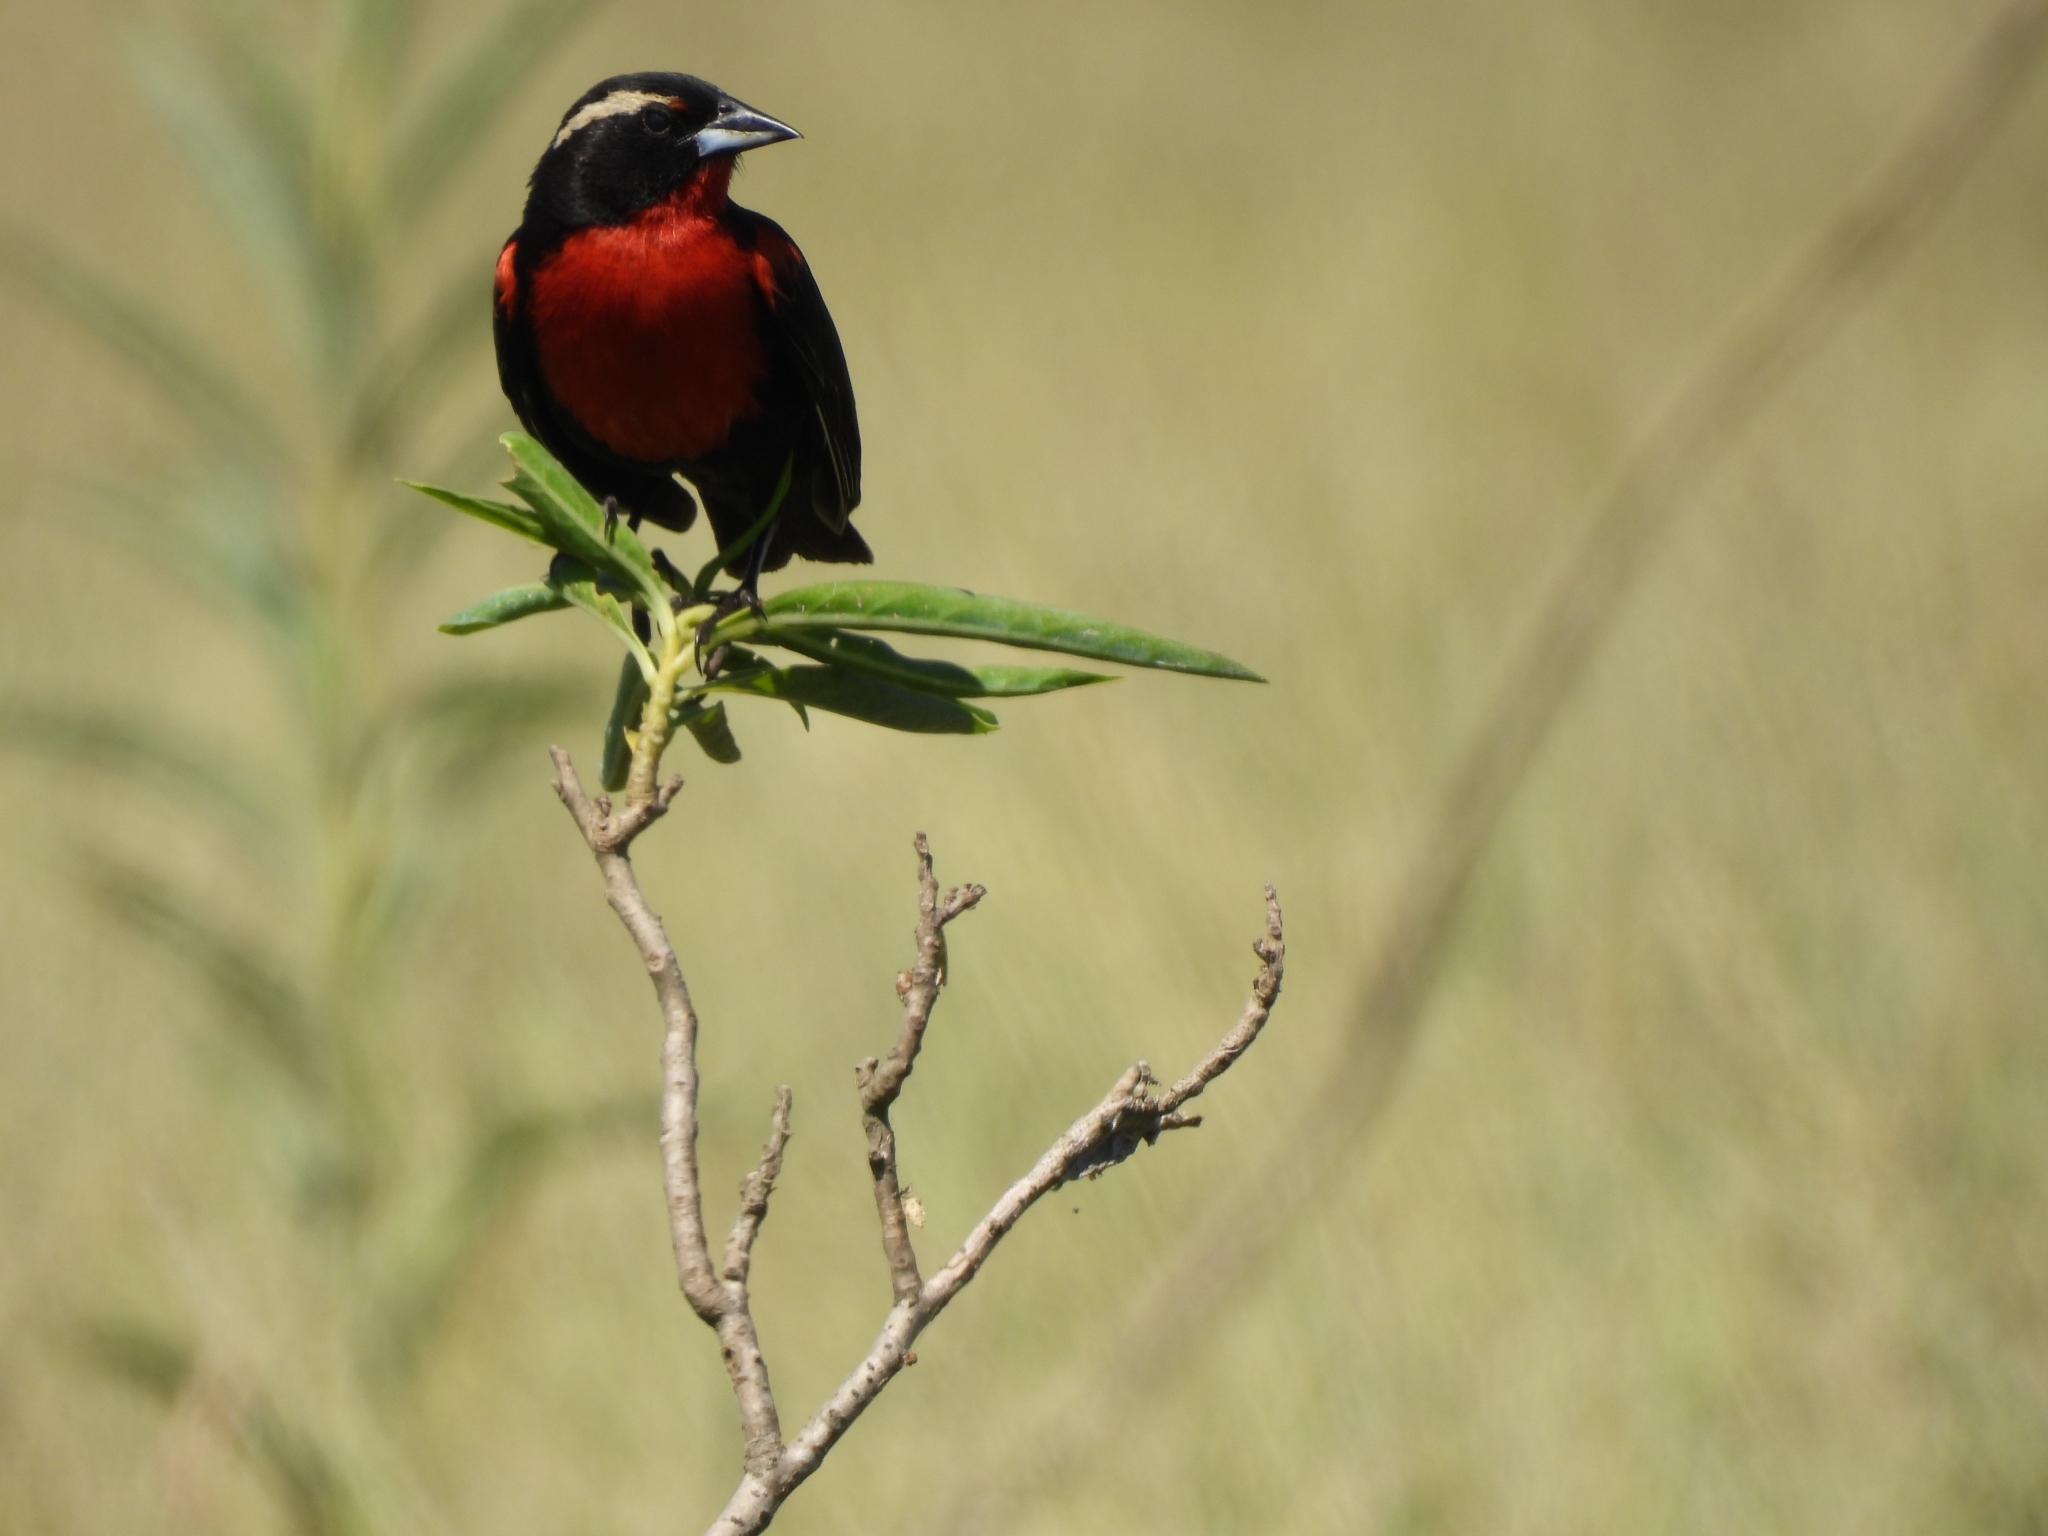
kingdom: Animalia
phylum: Chordata
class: Aves
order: Passeriformes
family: Icteridae
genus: Sturnella
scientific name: Sturnella superciliaris
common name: White-browed blackbird
